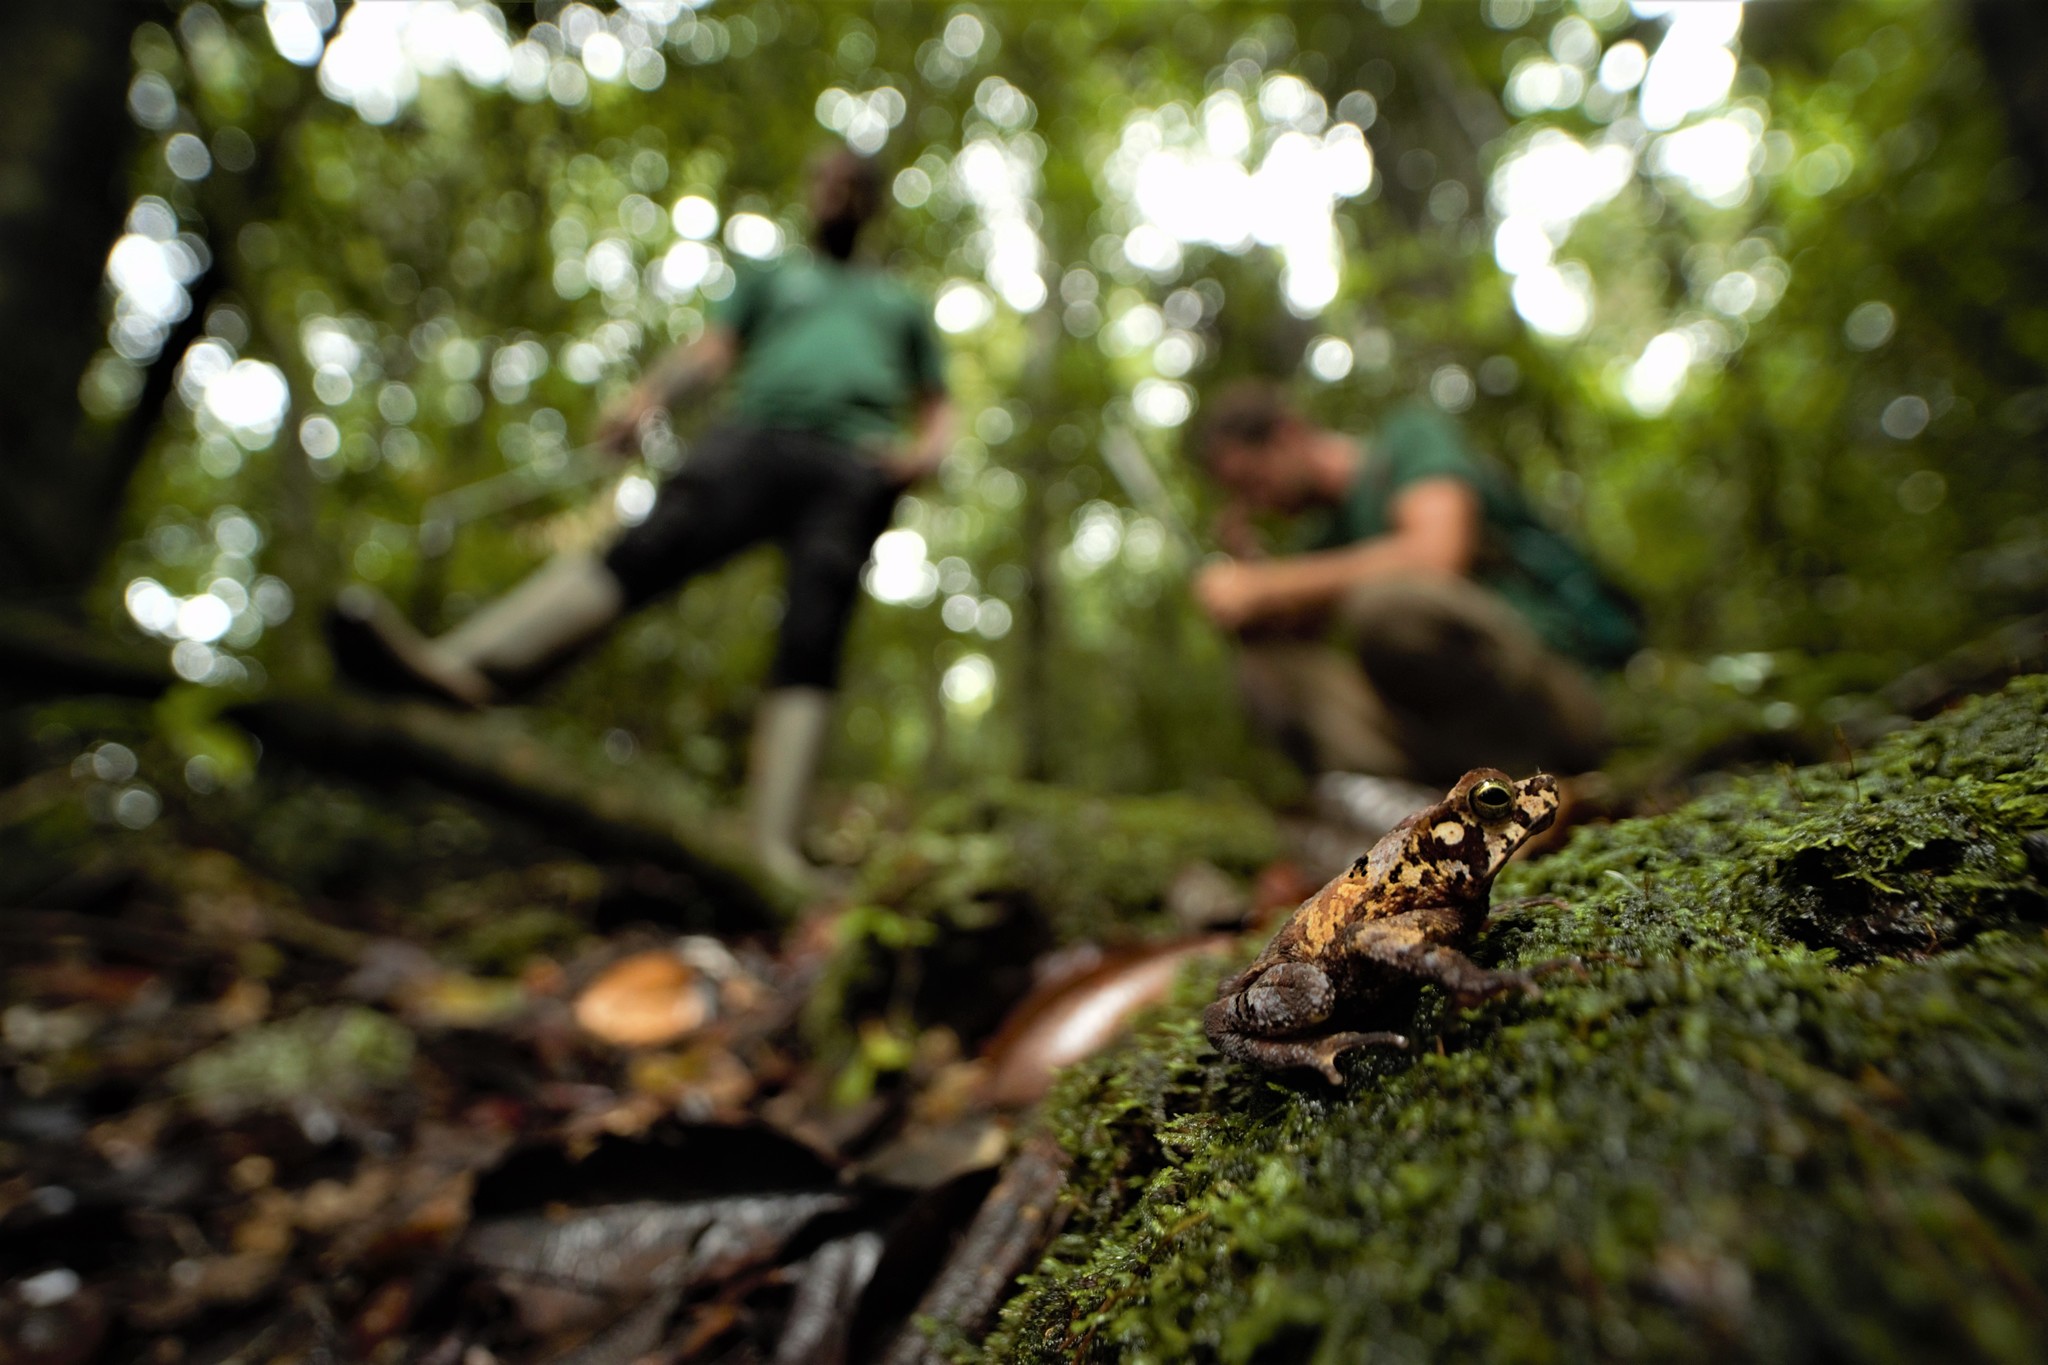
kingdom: Animalia
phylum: Chordata
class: Amphibia
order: Anura
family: Bufonidae
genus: Rhinella
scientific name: Rhinella margaritifera
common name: Mitred toad
